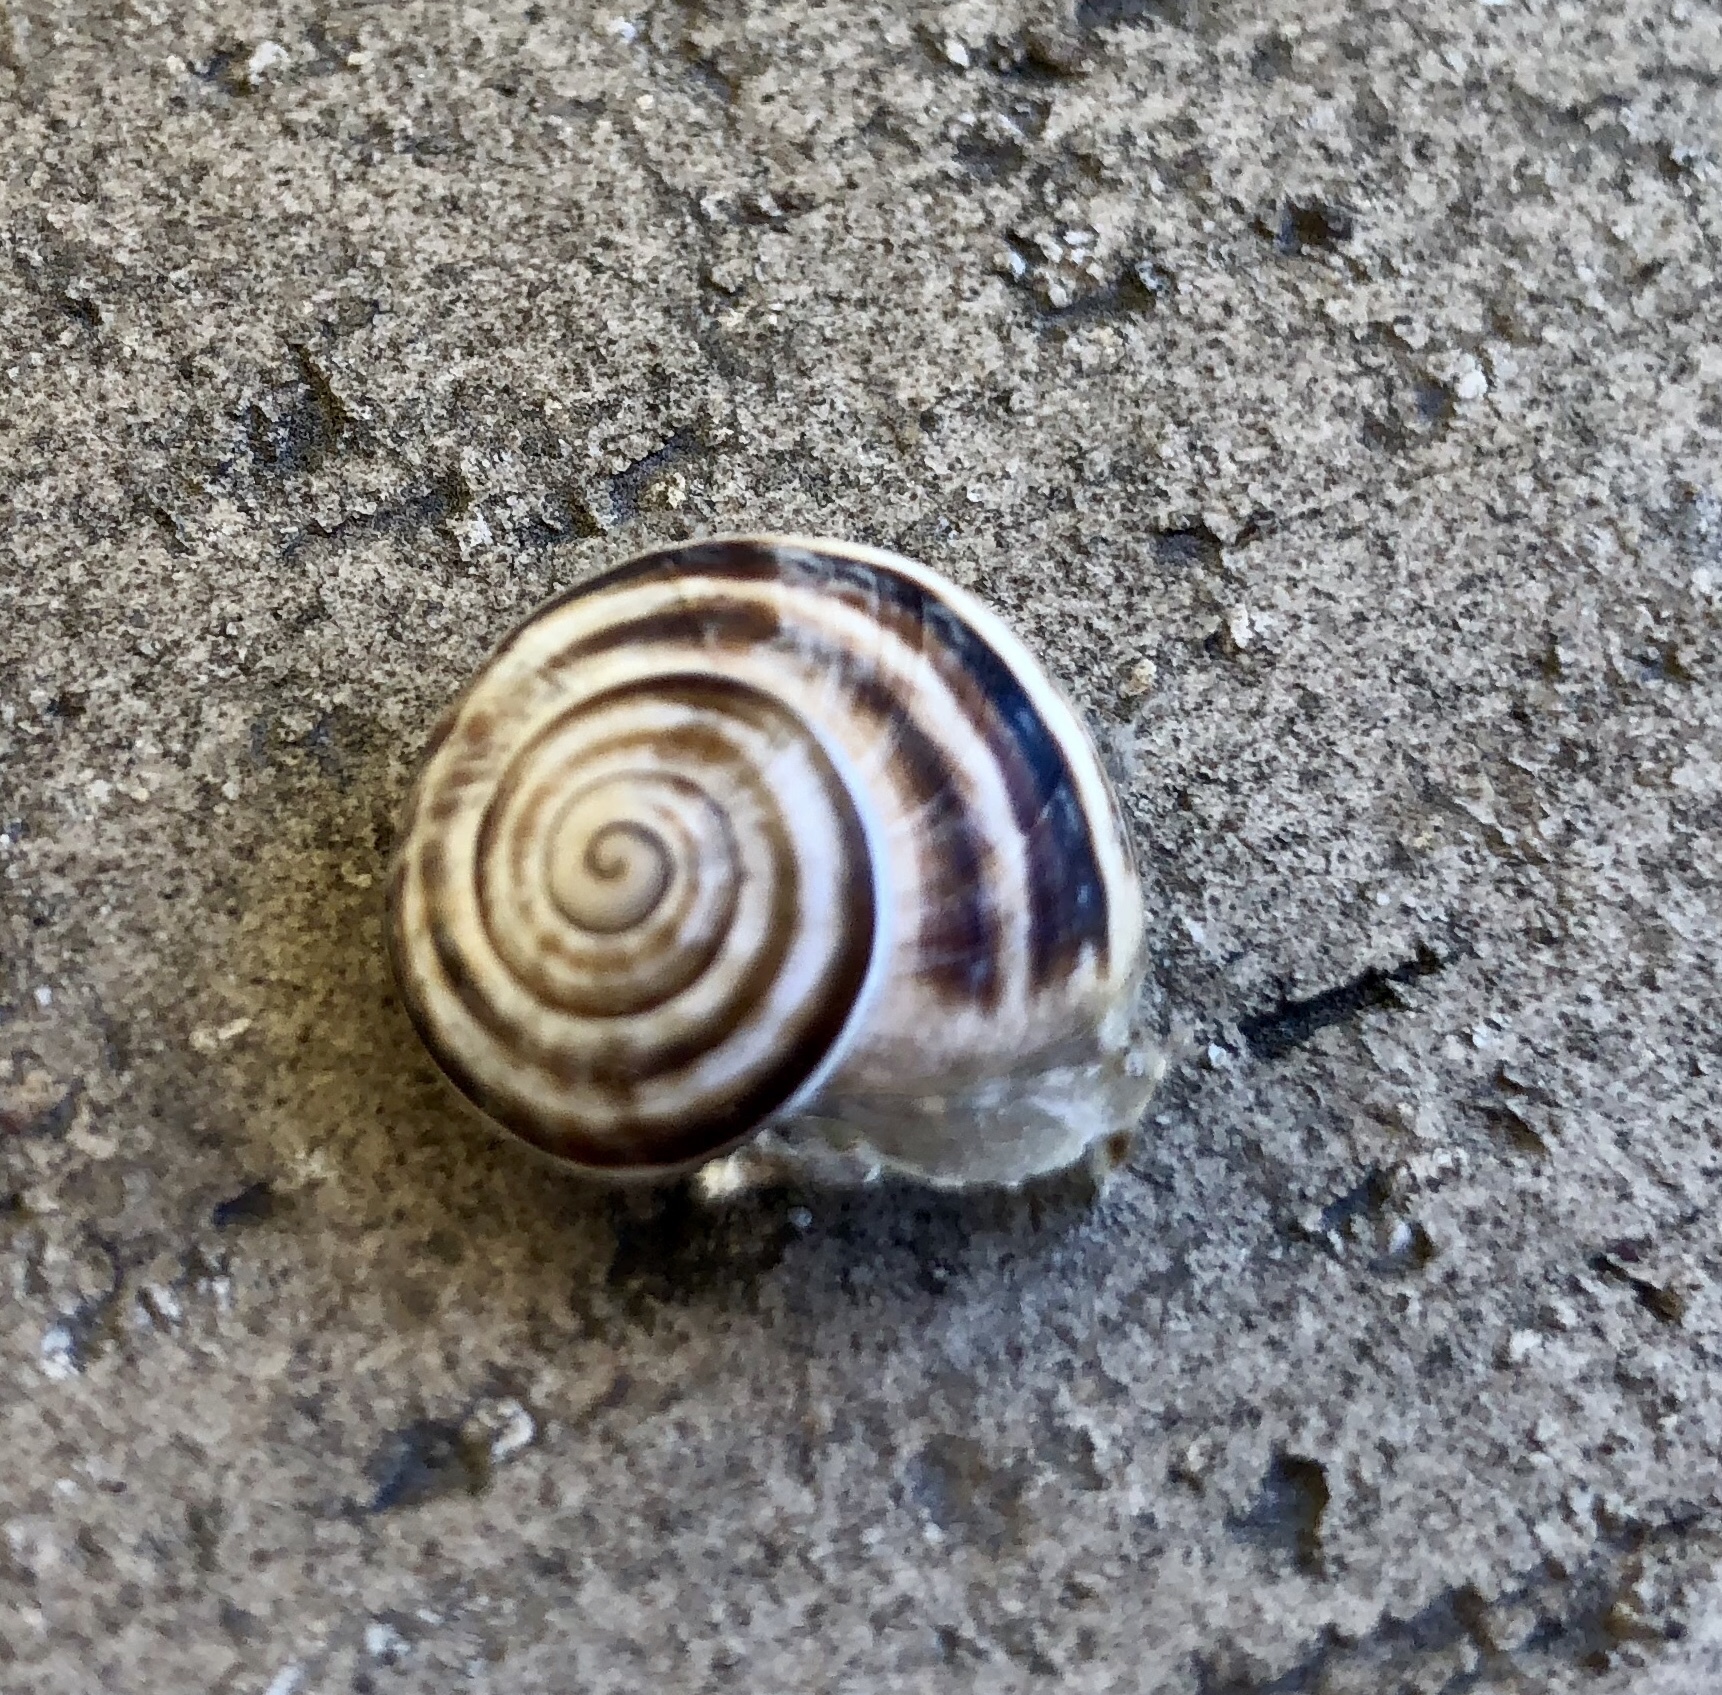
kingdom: Animalia
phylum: Mollusca
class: Gastropoda
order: Stylommatophora
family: Helicidae
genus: Otala
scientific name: Otala lactea
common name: Milk snail
